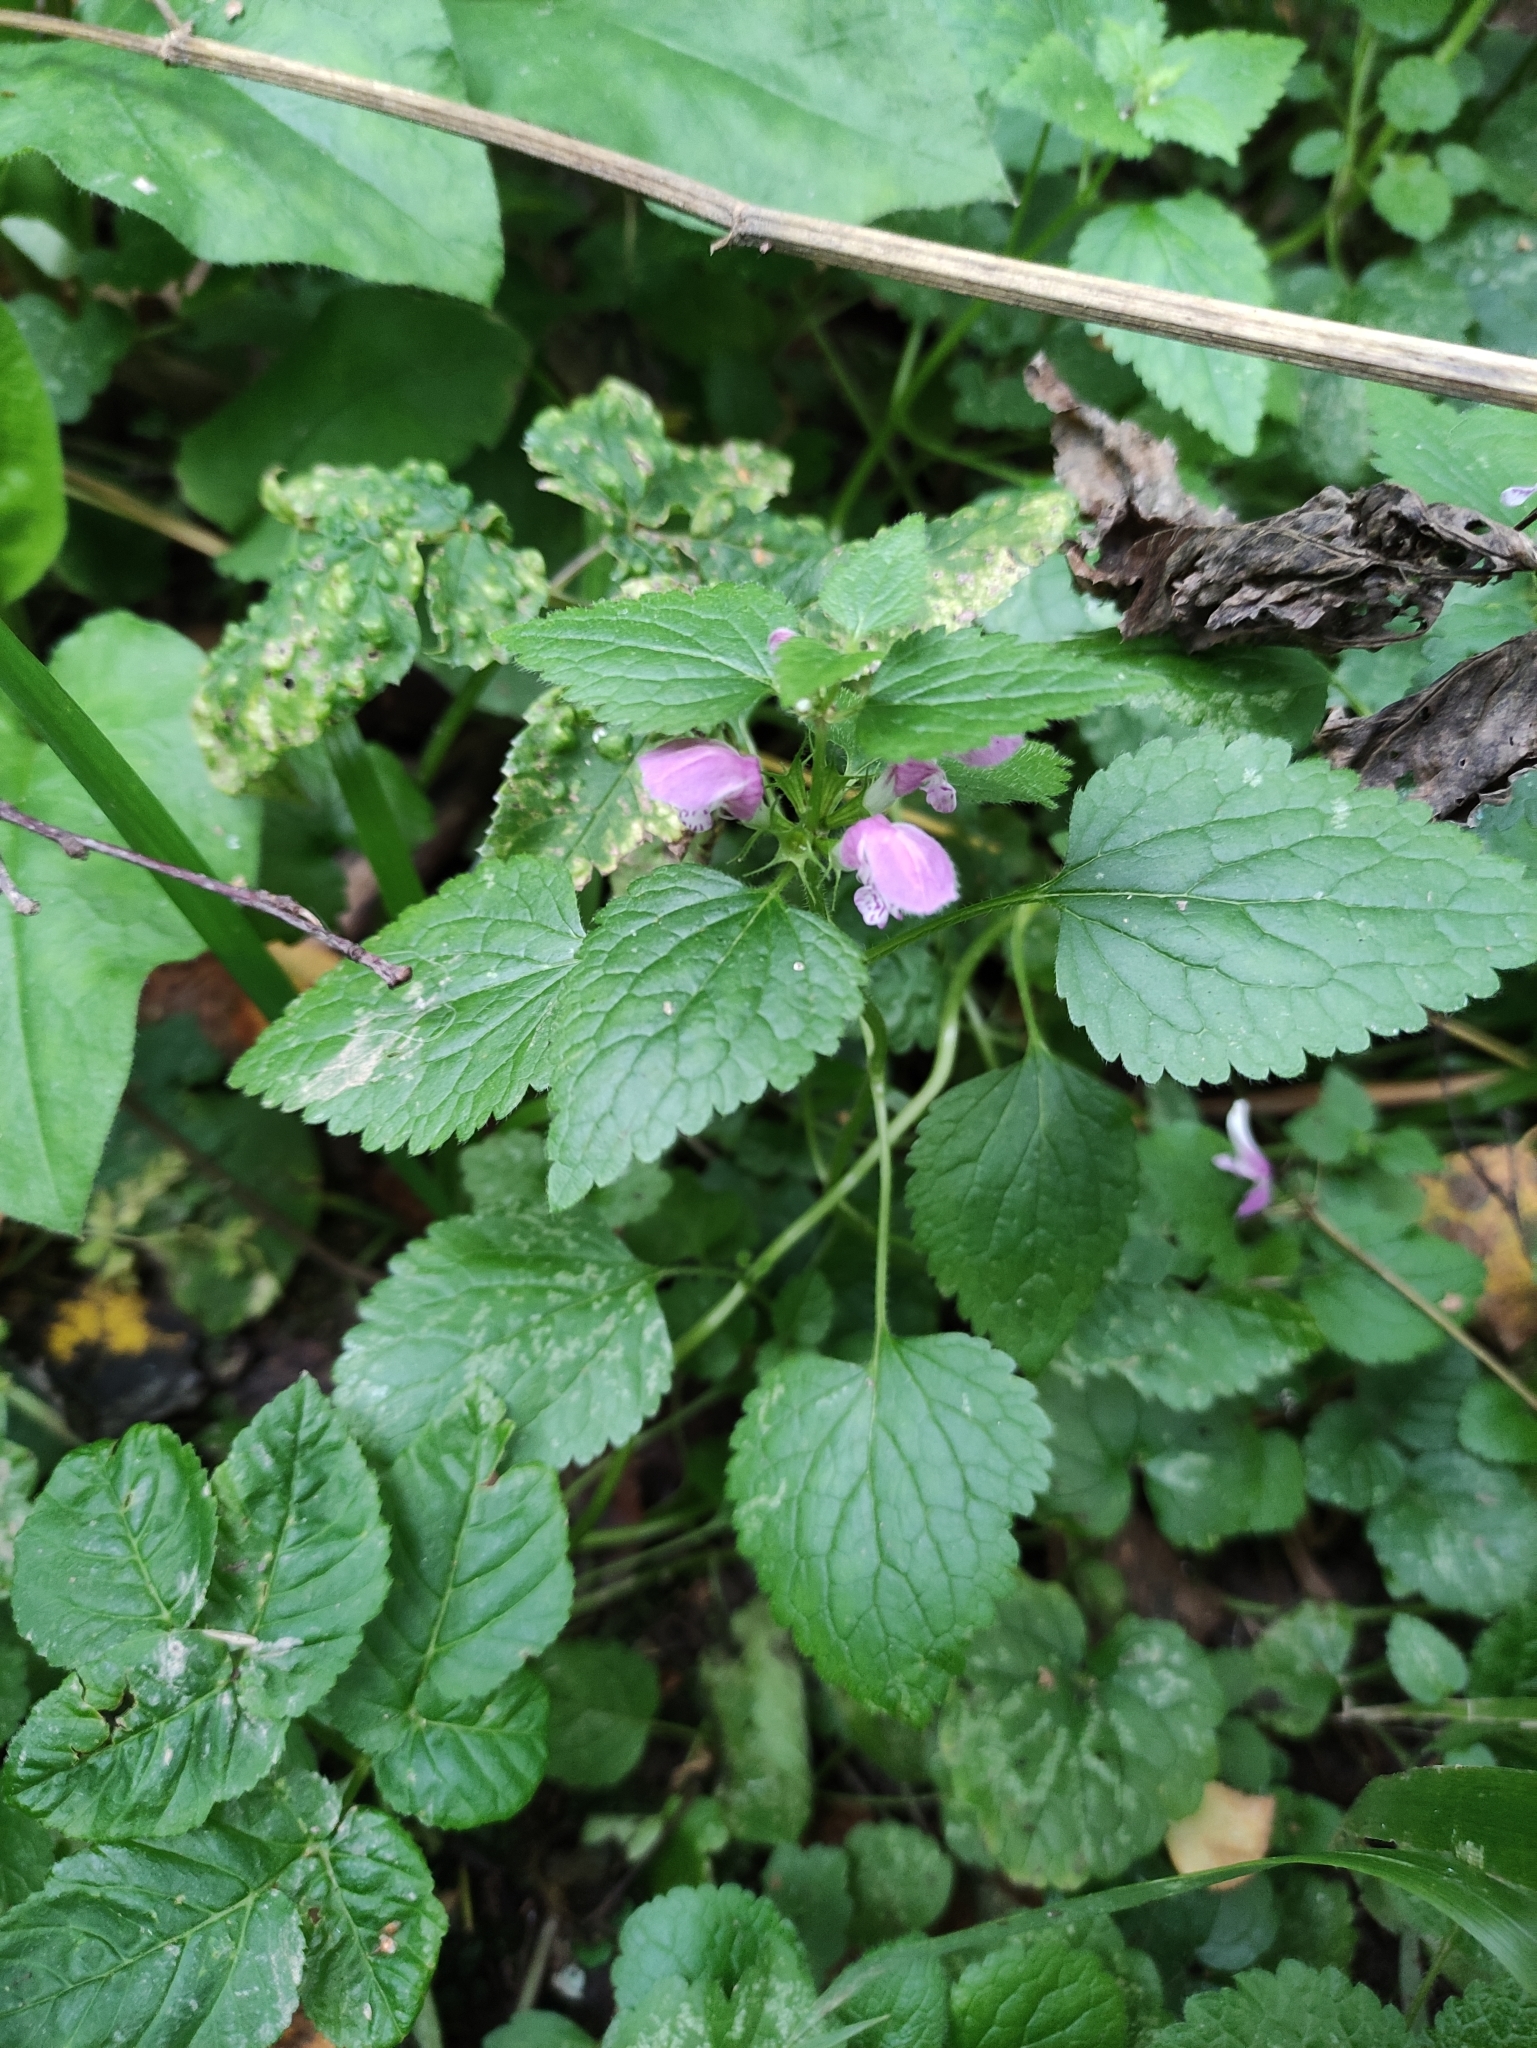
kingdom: Plantae
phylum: Tracheophyta
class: Magnoliopsida
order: Lamiales
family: Lamiaceae
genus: Lamium
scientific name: Lamium maculatum
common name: Spotted dead-nettle
